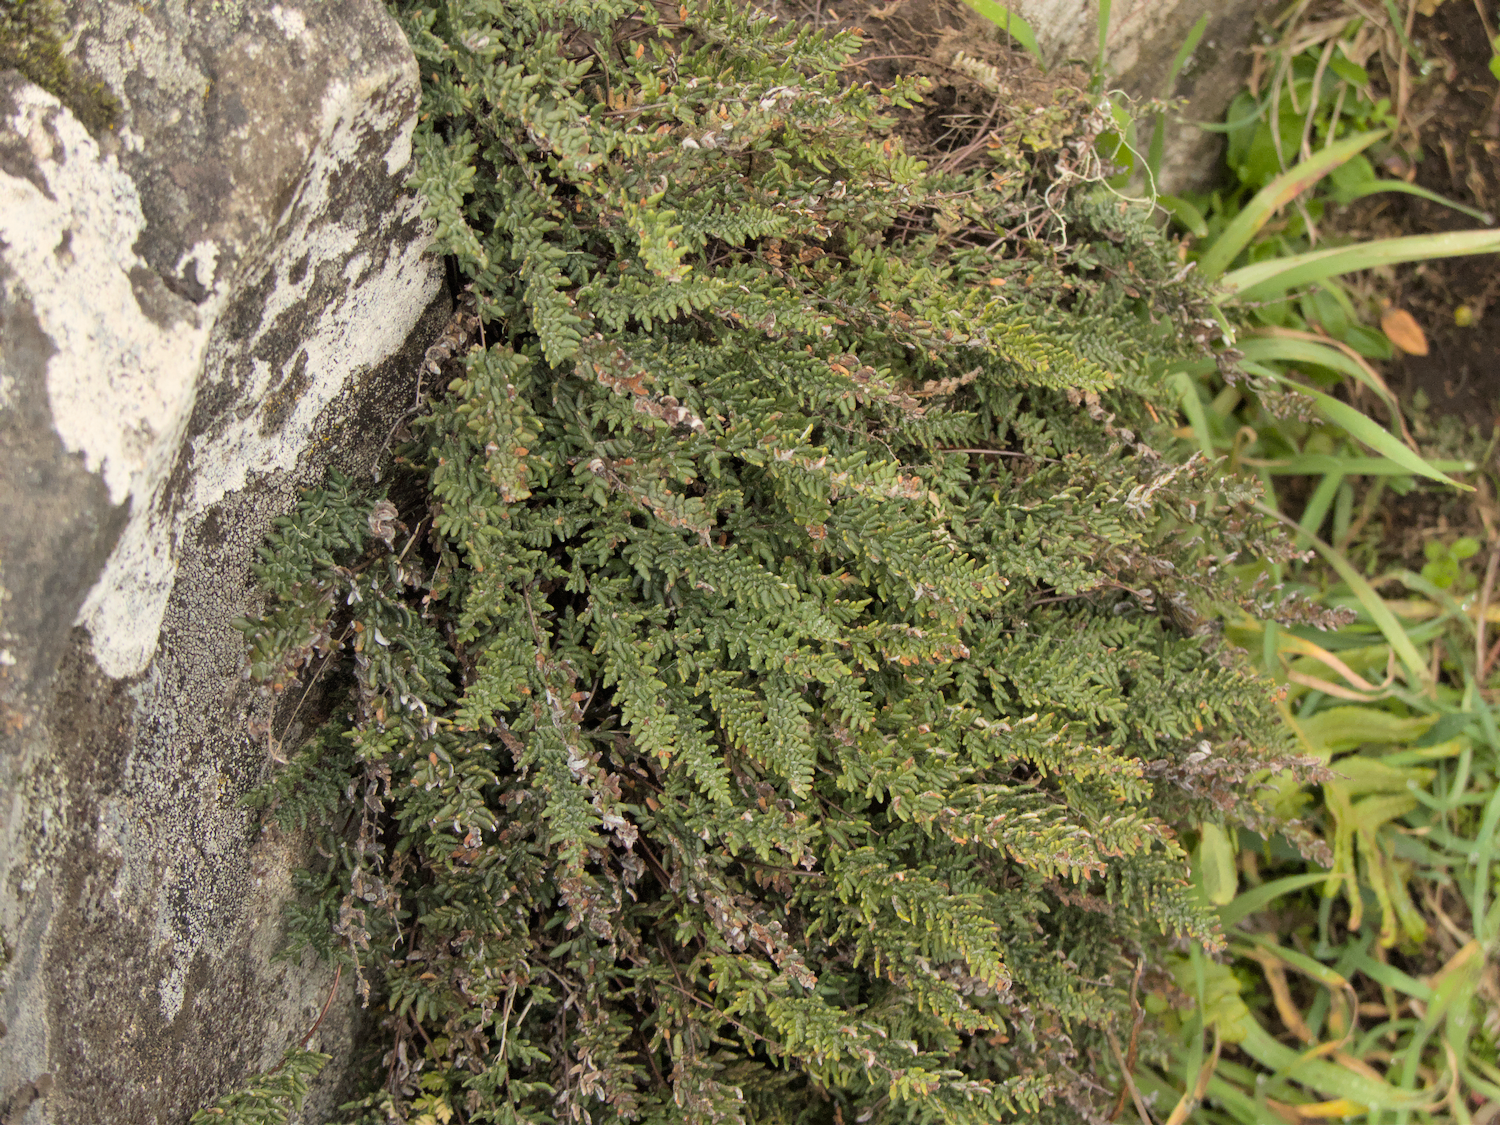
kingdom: Plantae
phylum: Tracheophyta
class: Polypodiopsida
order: Polypodiales
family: Pteridaceae
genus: Myriopteris
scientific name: Myriopteris gracillima
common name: Lace fern
